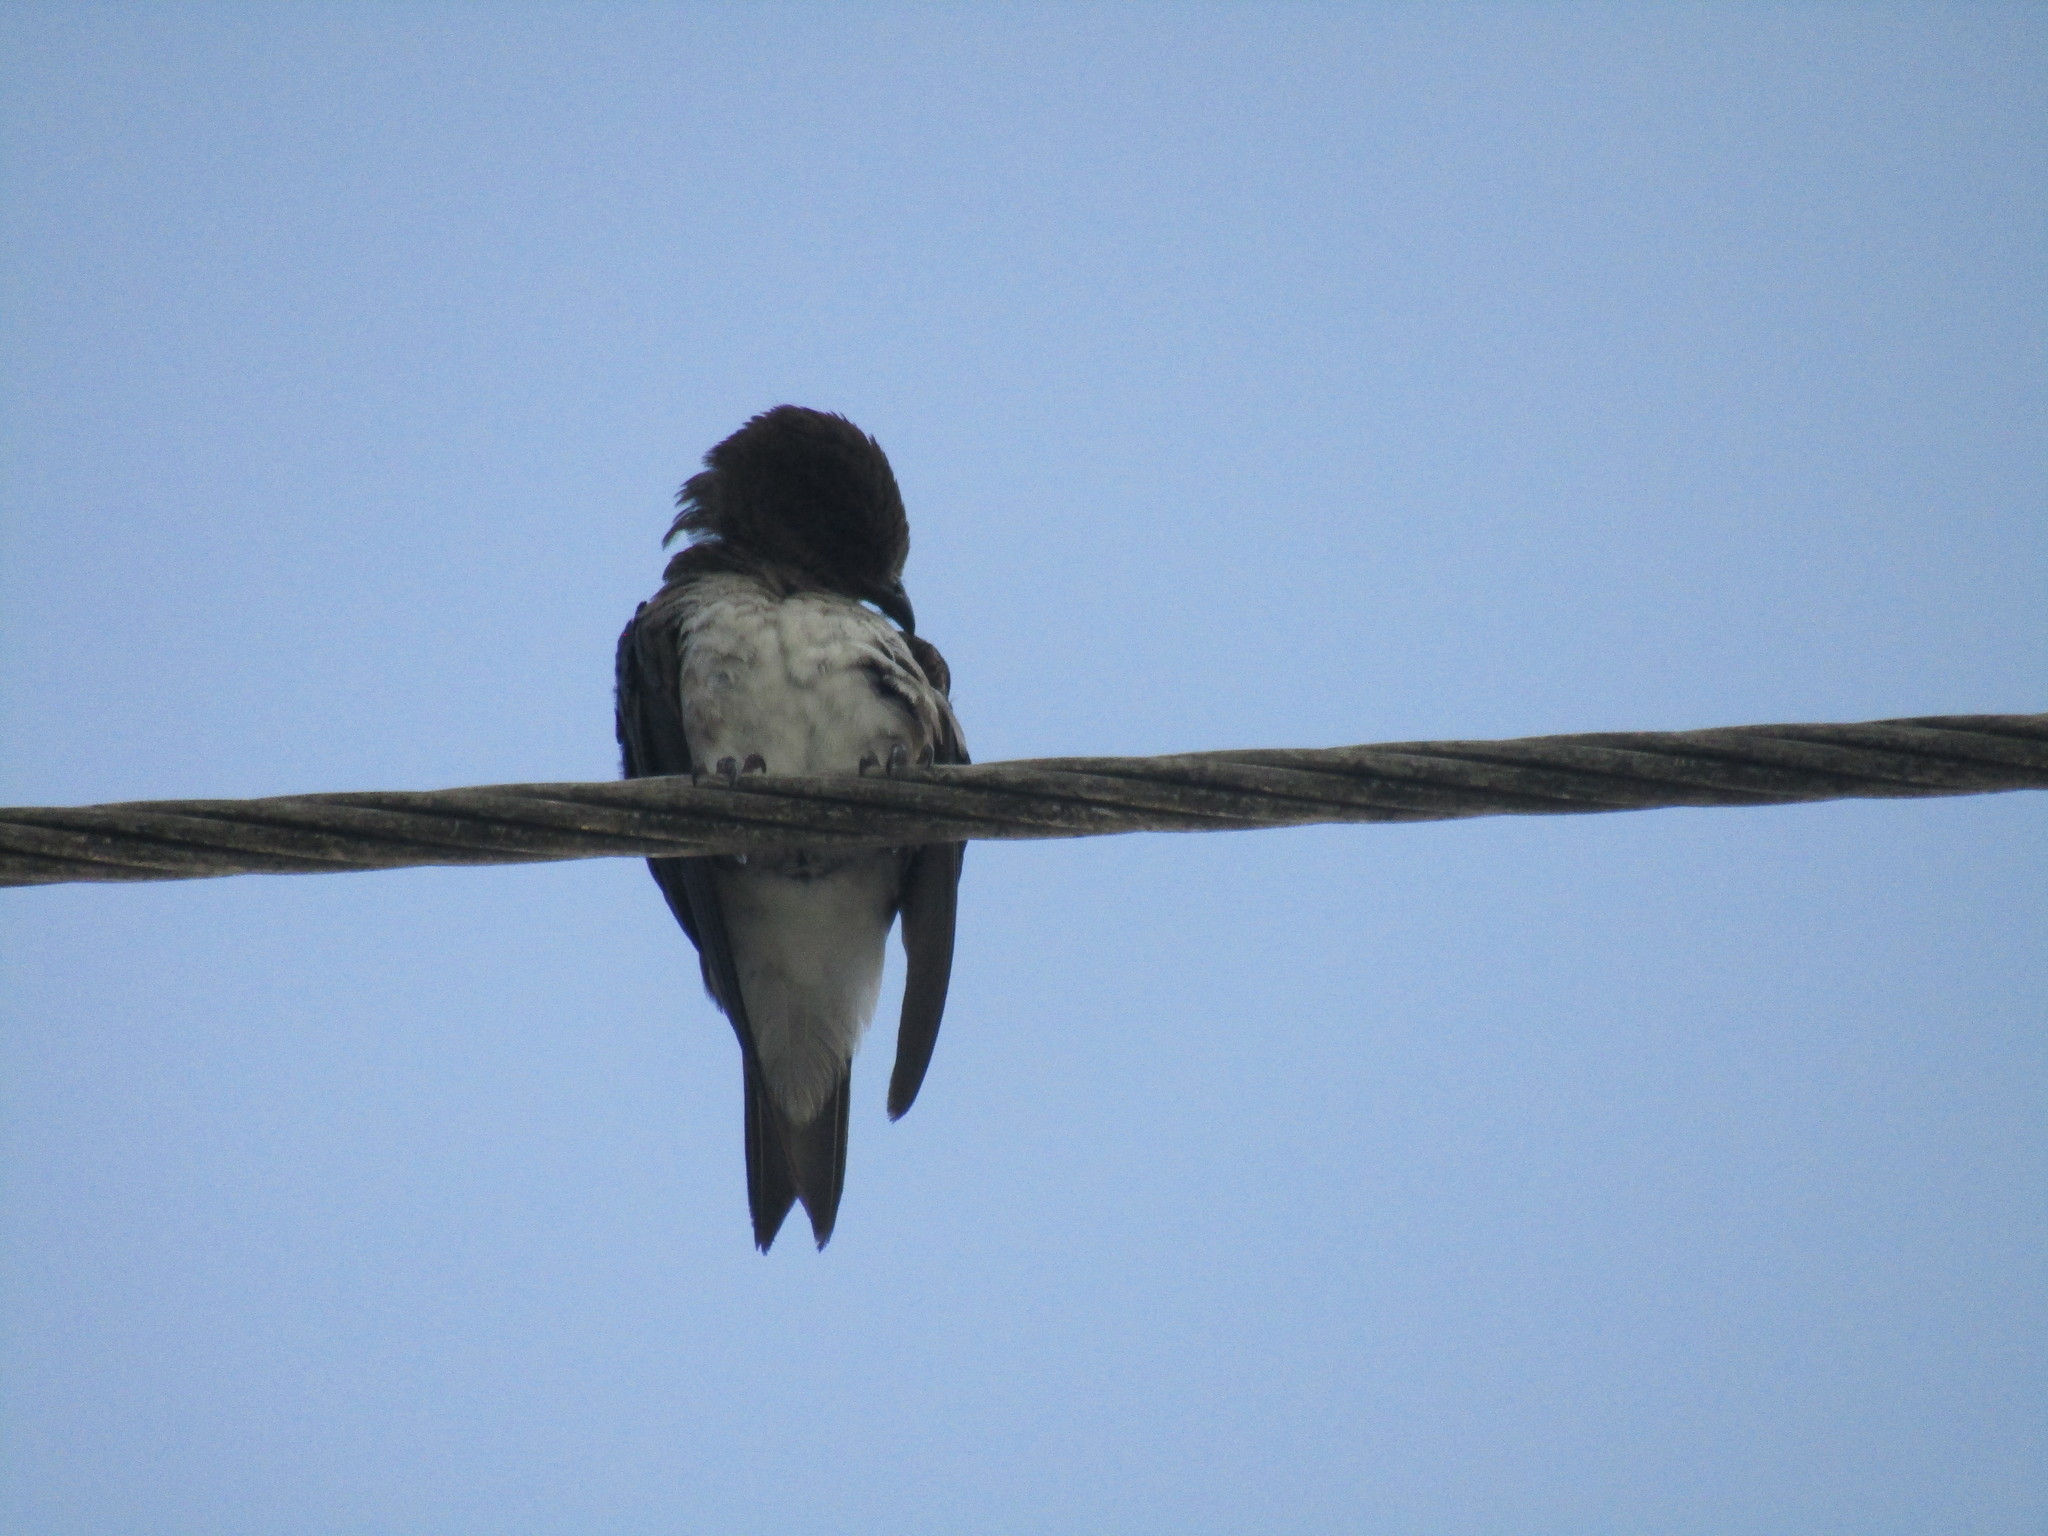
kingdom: Animalia
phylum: Chordata
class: Aves
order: Passeriformes
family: Hirundinidae
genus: Progne
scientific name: Progne chalybea
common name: Grey-breasted martin
